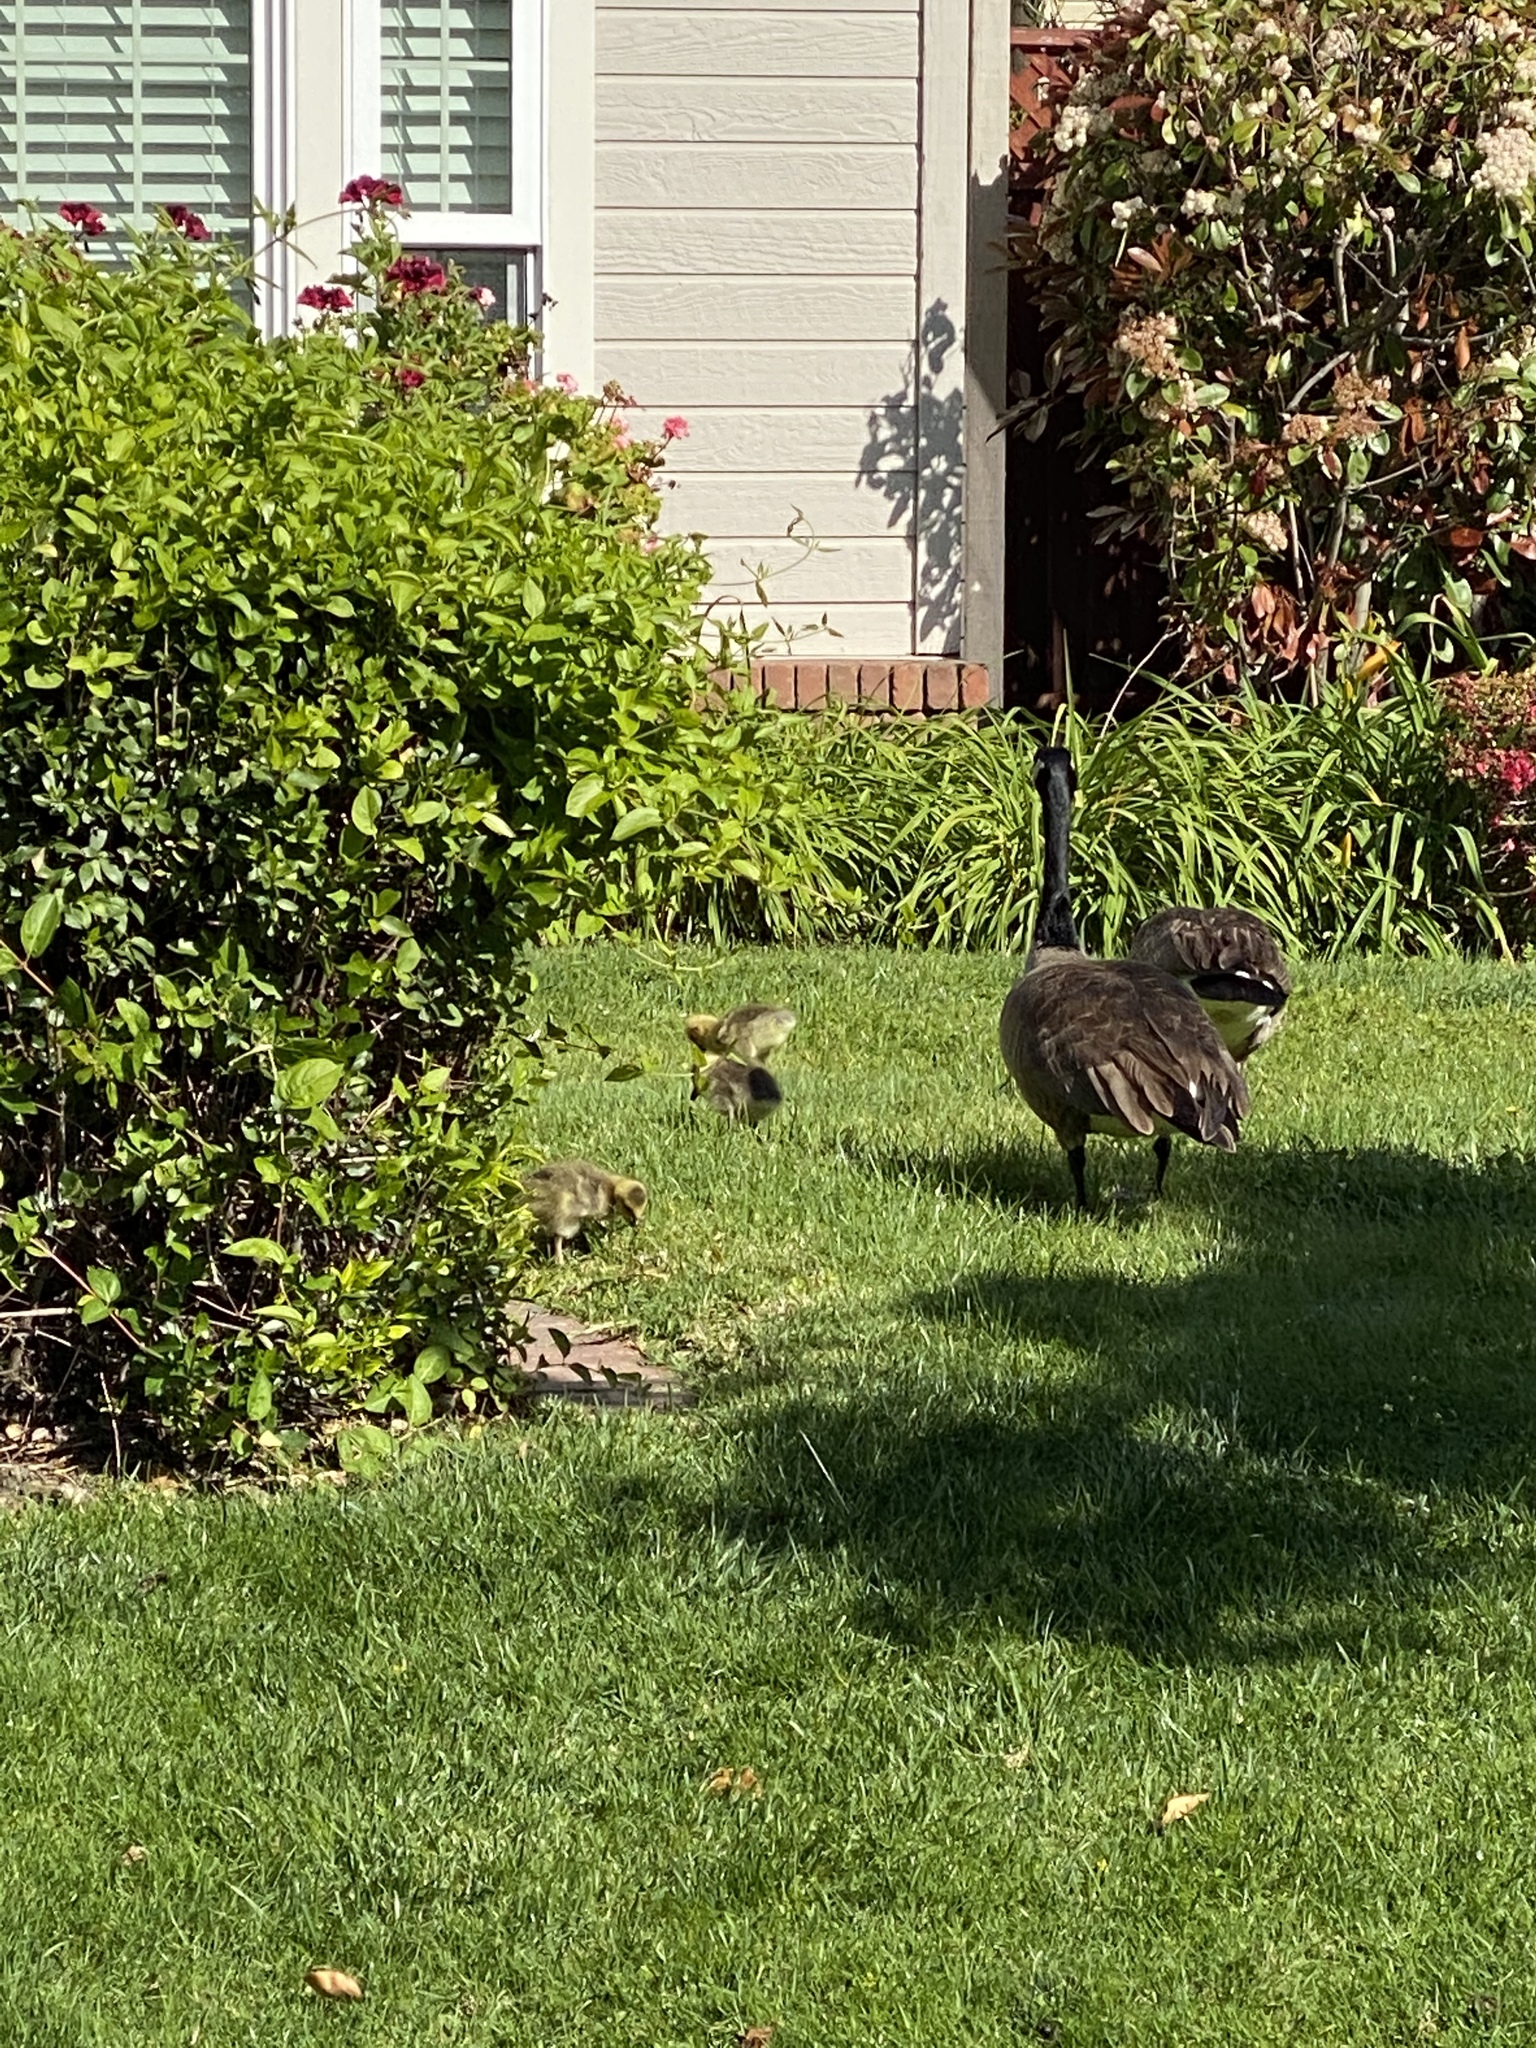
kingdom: Animalia
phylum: Chordata
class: Aves
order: Anseriformes
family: Anatidae
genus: Branta
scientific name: Branta canadensis
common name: Canada goose
